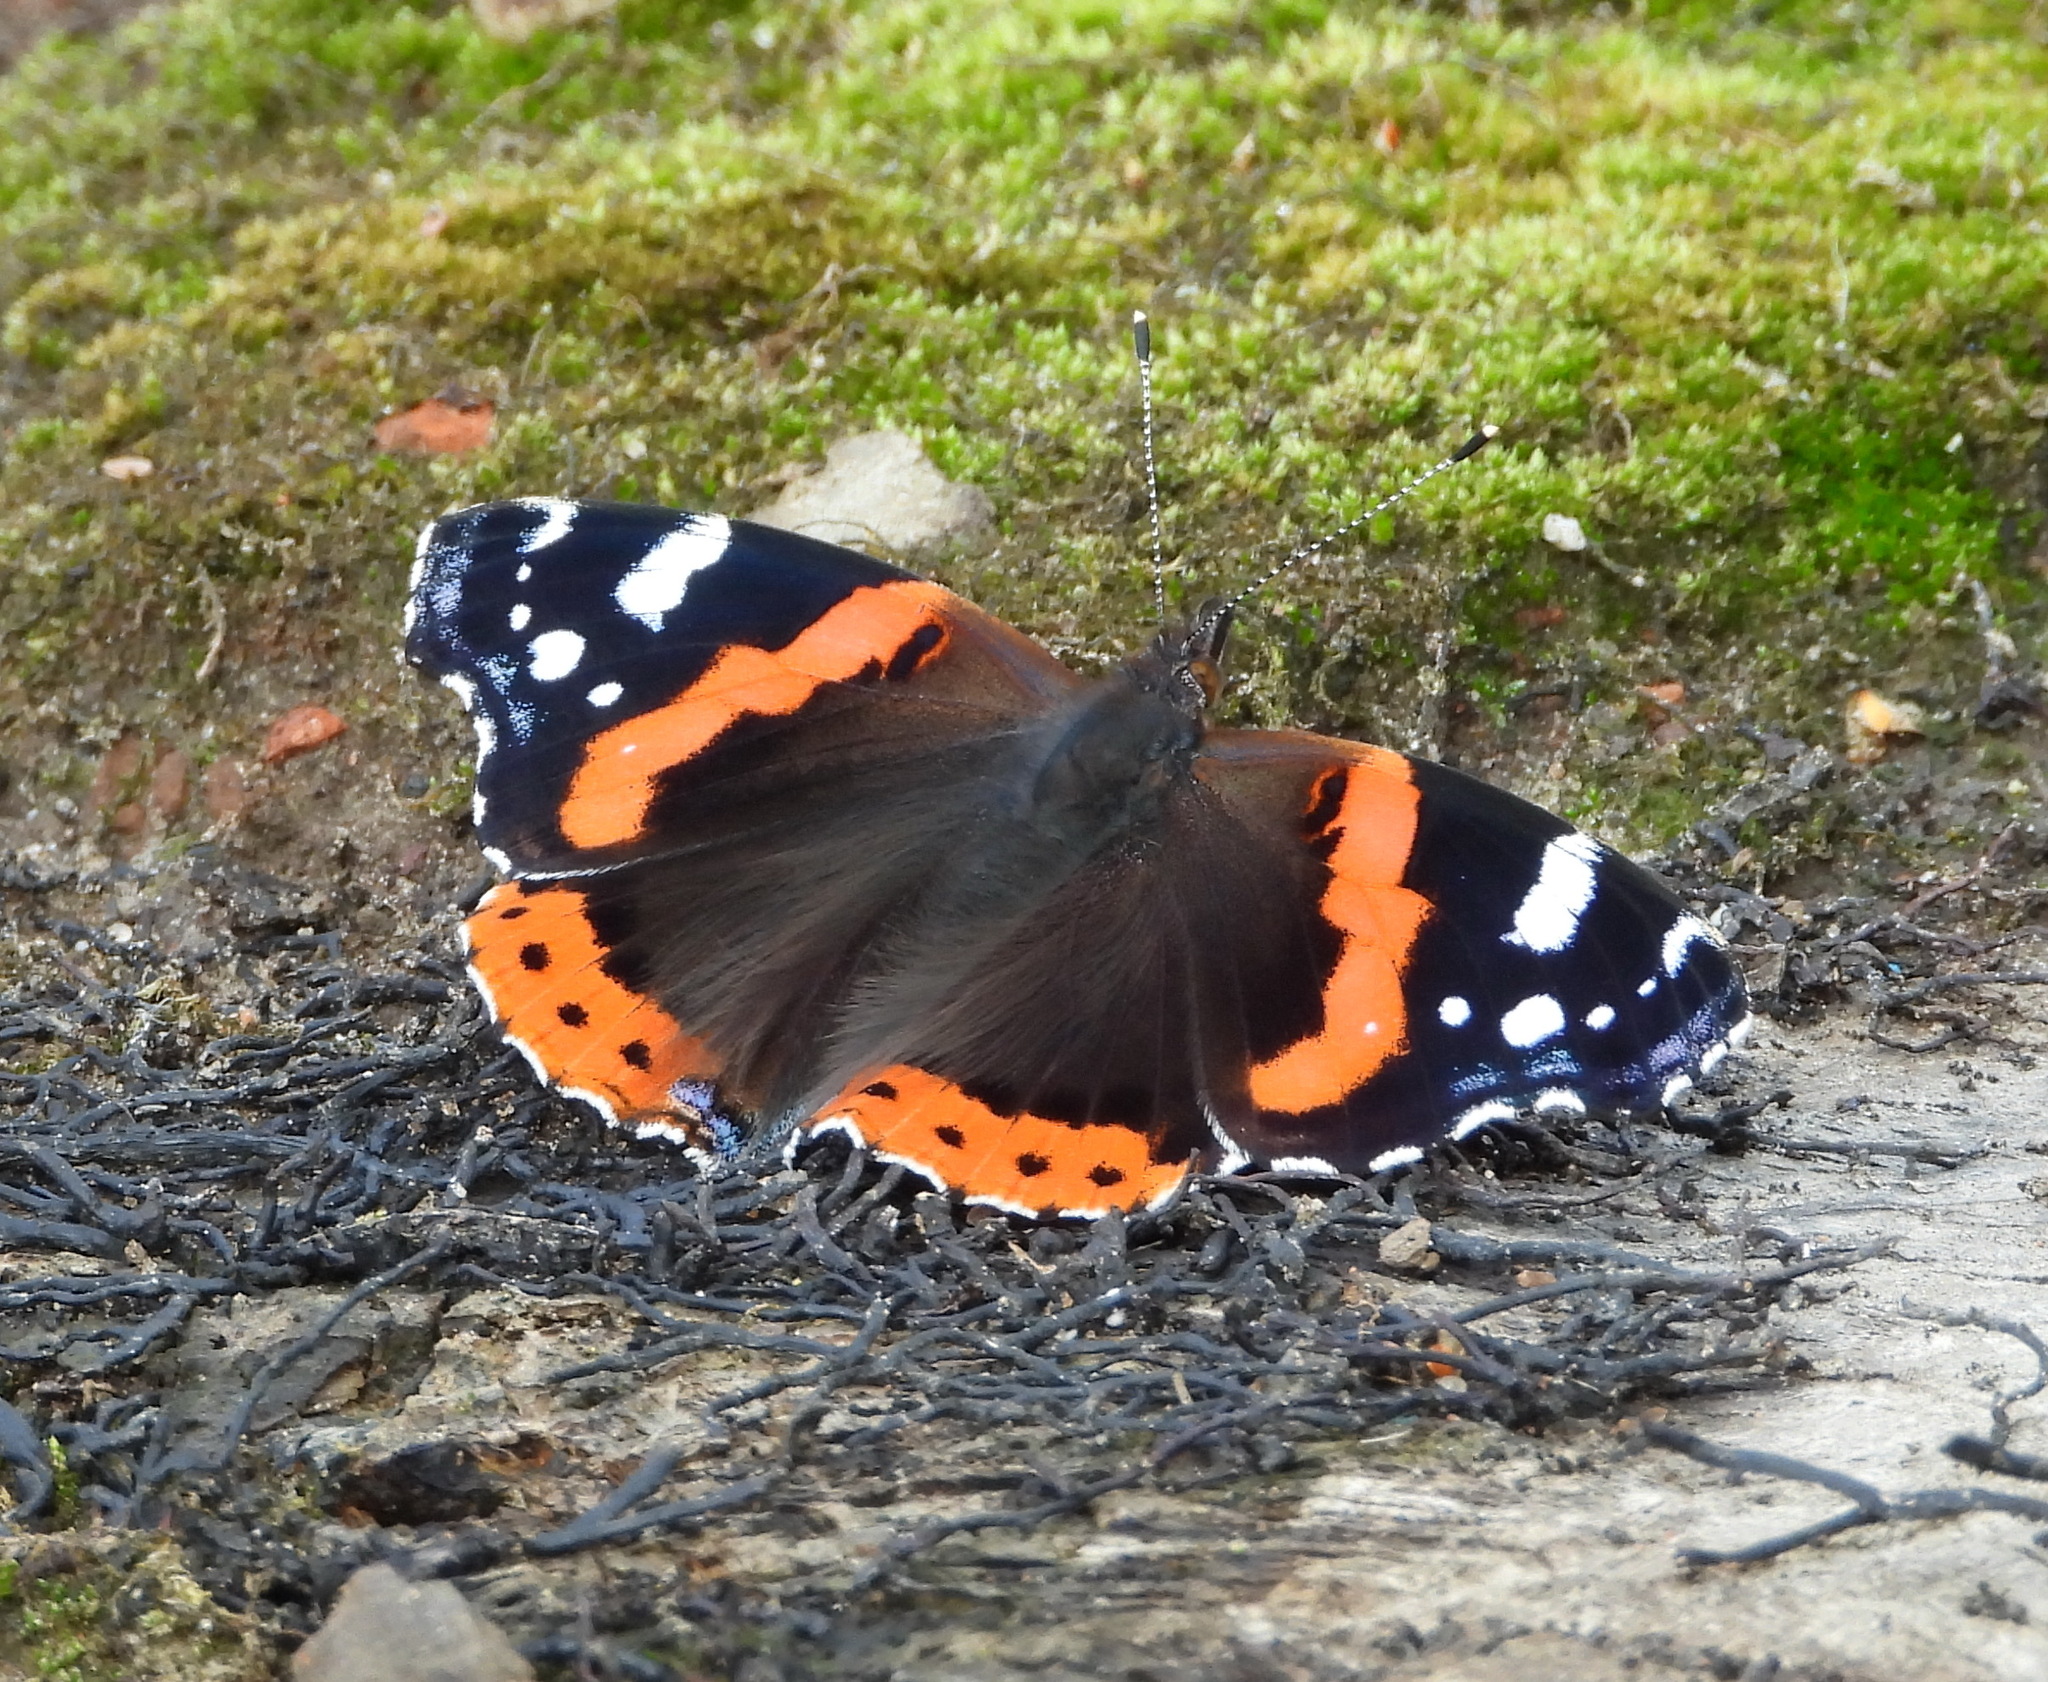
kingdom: Animalia
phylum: Arthropoda
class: Insecta
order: Lepidoptera
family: Nymphalidae
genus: Vanessa
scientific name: Vanessa atalanta
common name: Red admiral
